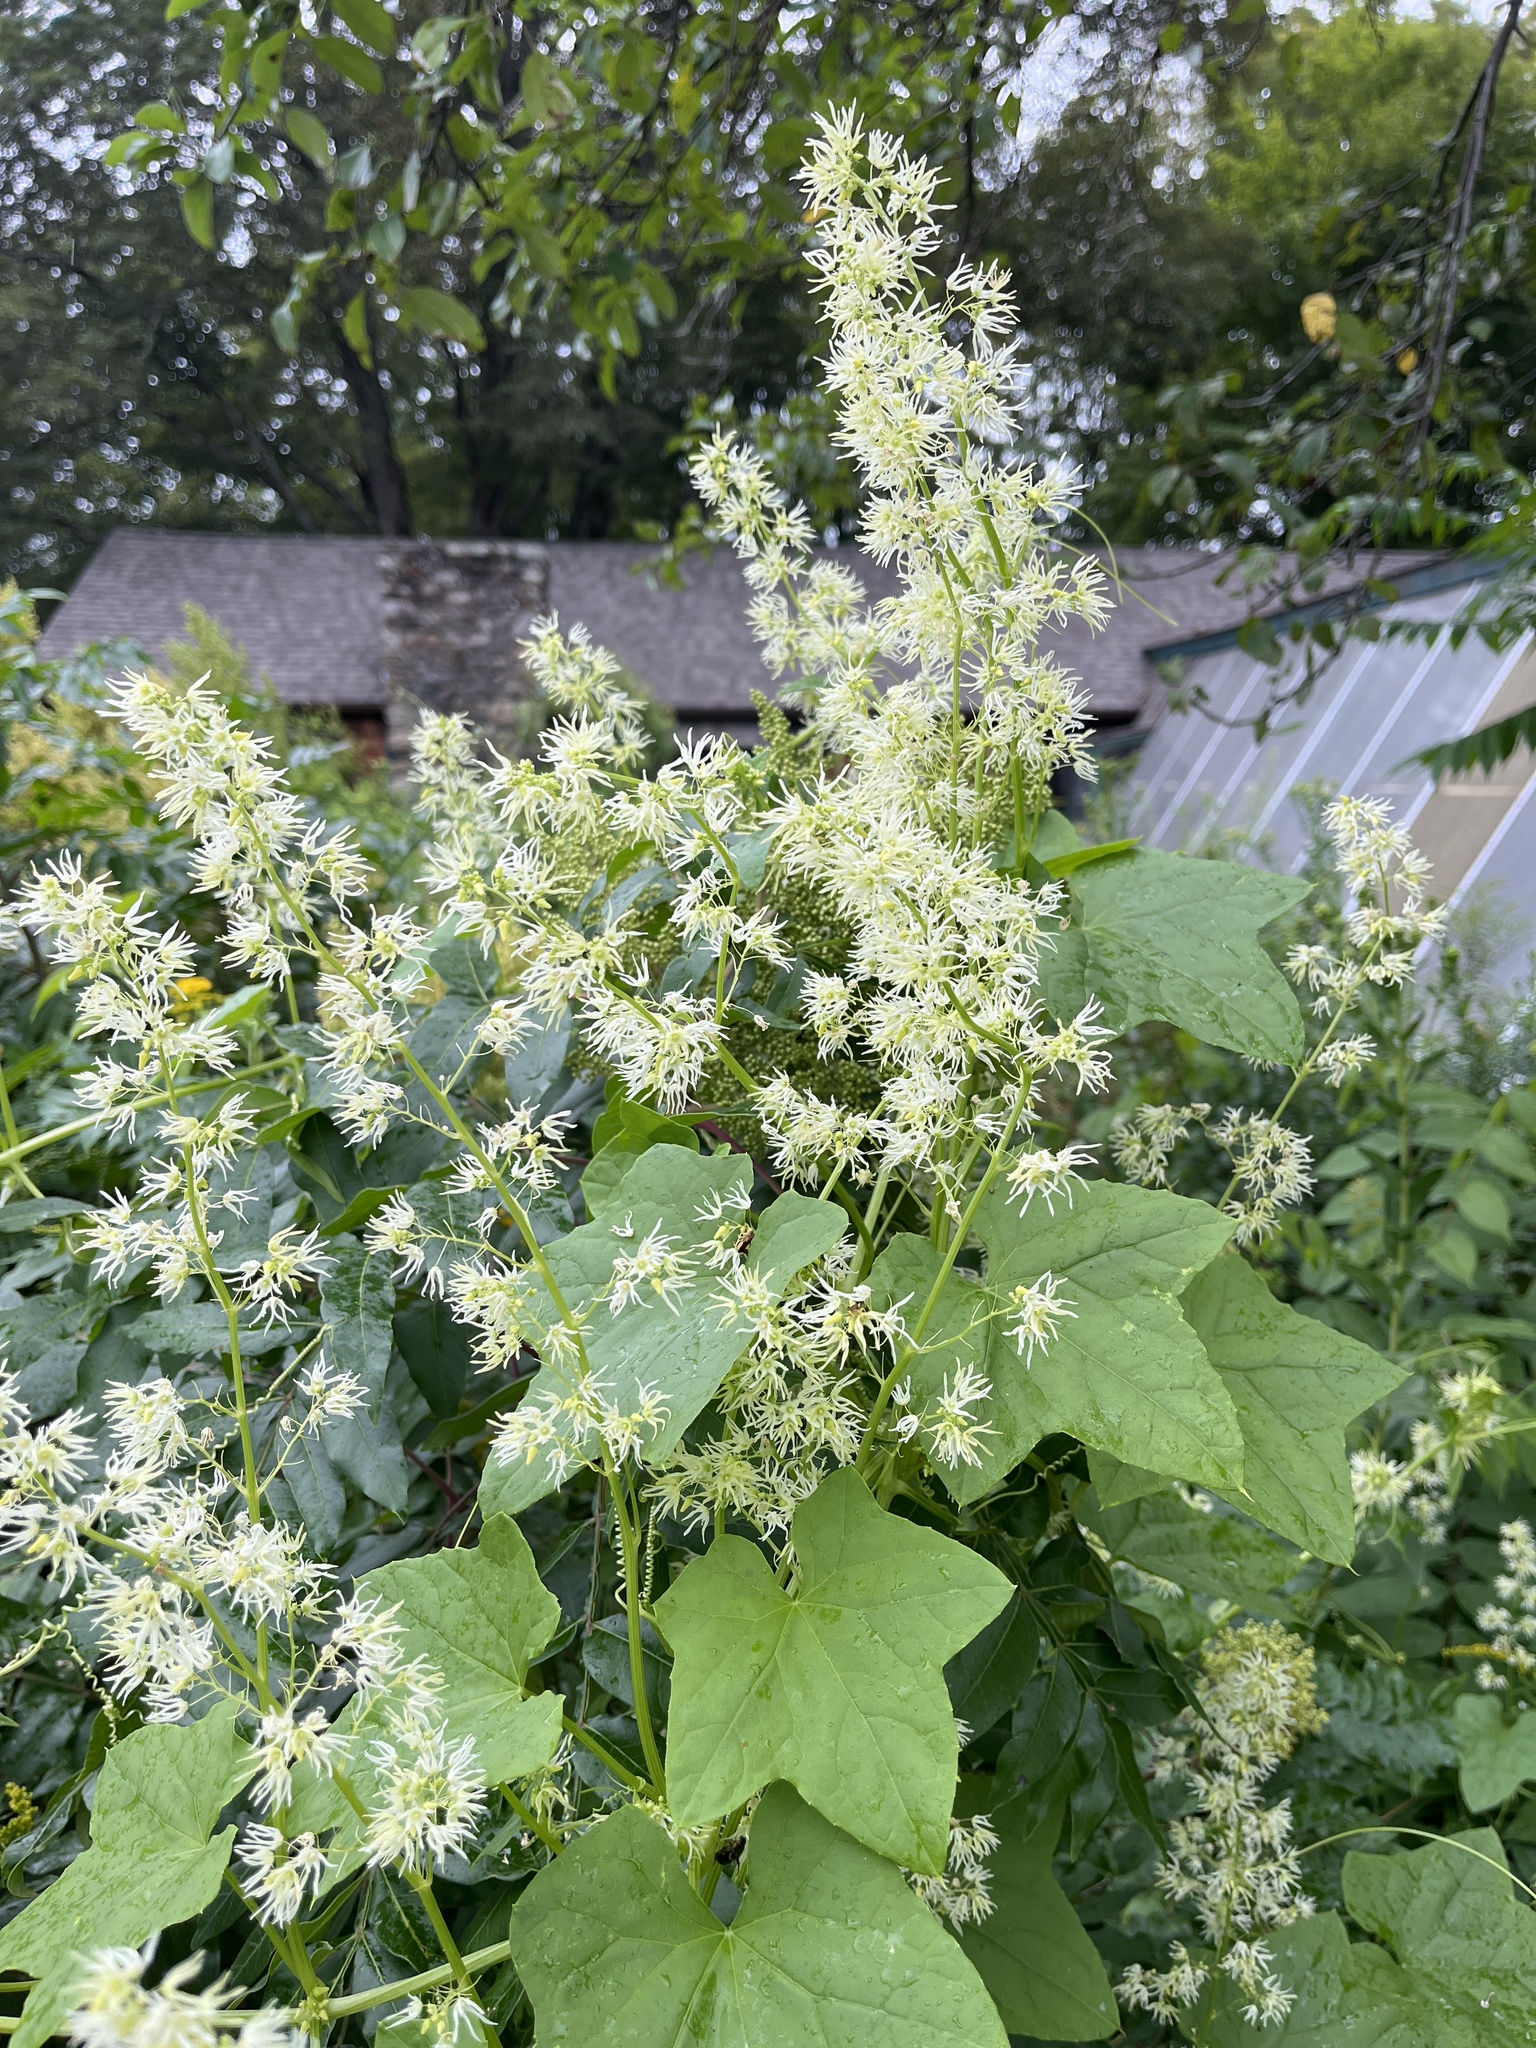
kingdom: Plantae
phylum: Tracheophyta
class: Magnoliopsida
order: Cucurbitales
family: Cucurbitaceae
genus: Echinocystis
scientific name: Echinocystis lobata
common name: Wild cucumber
